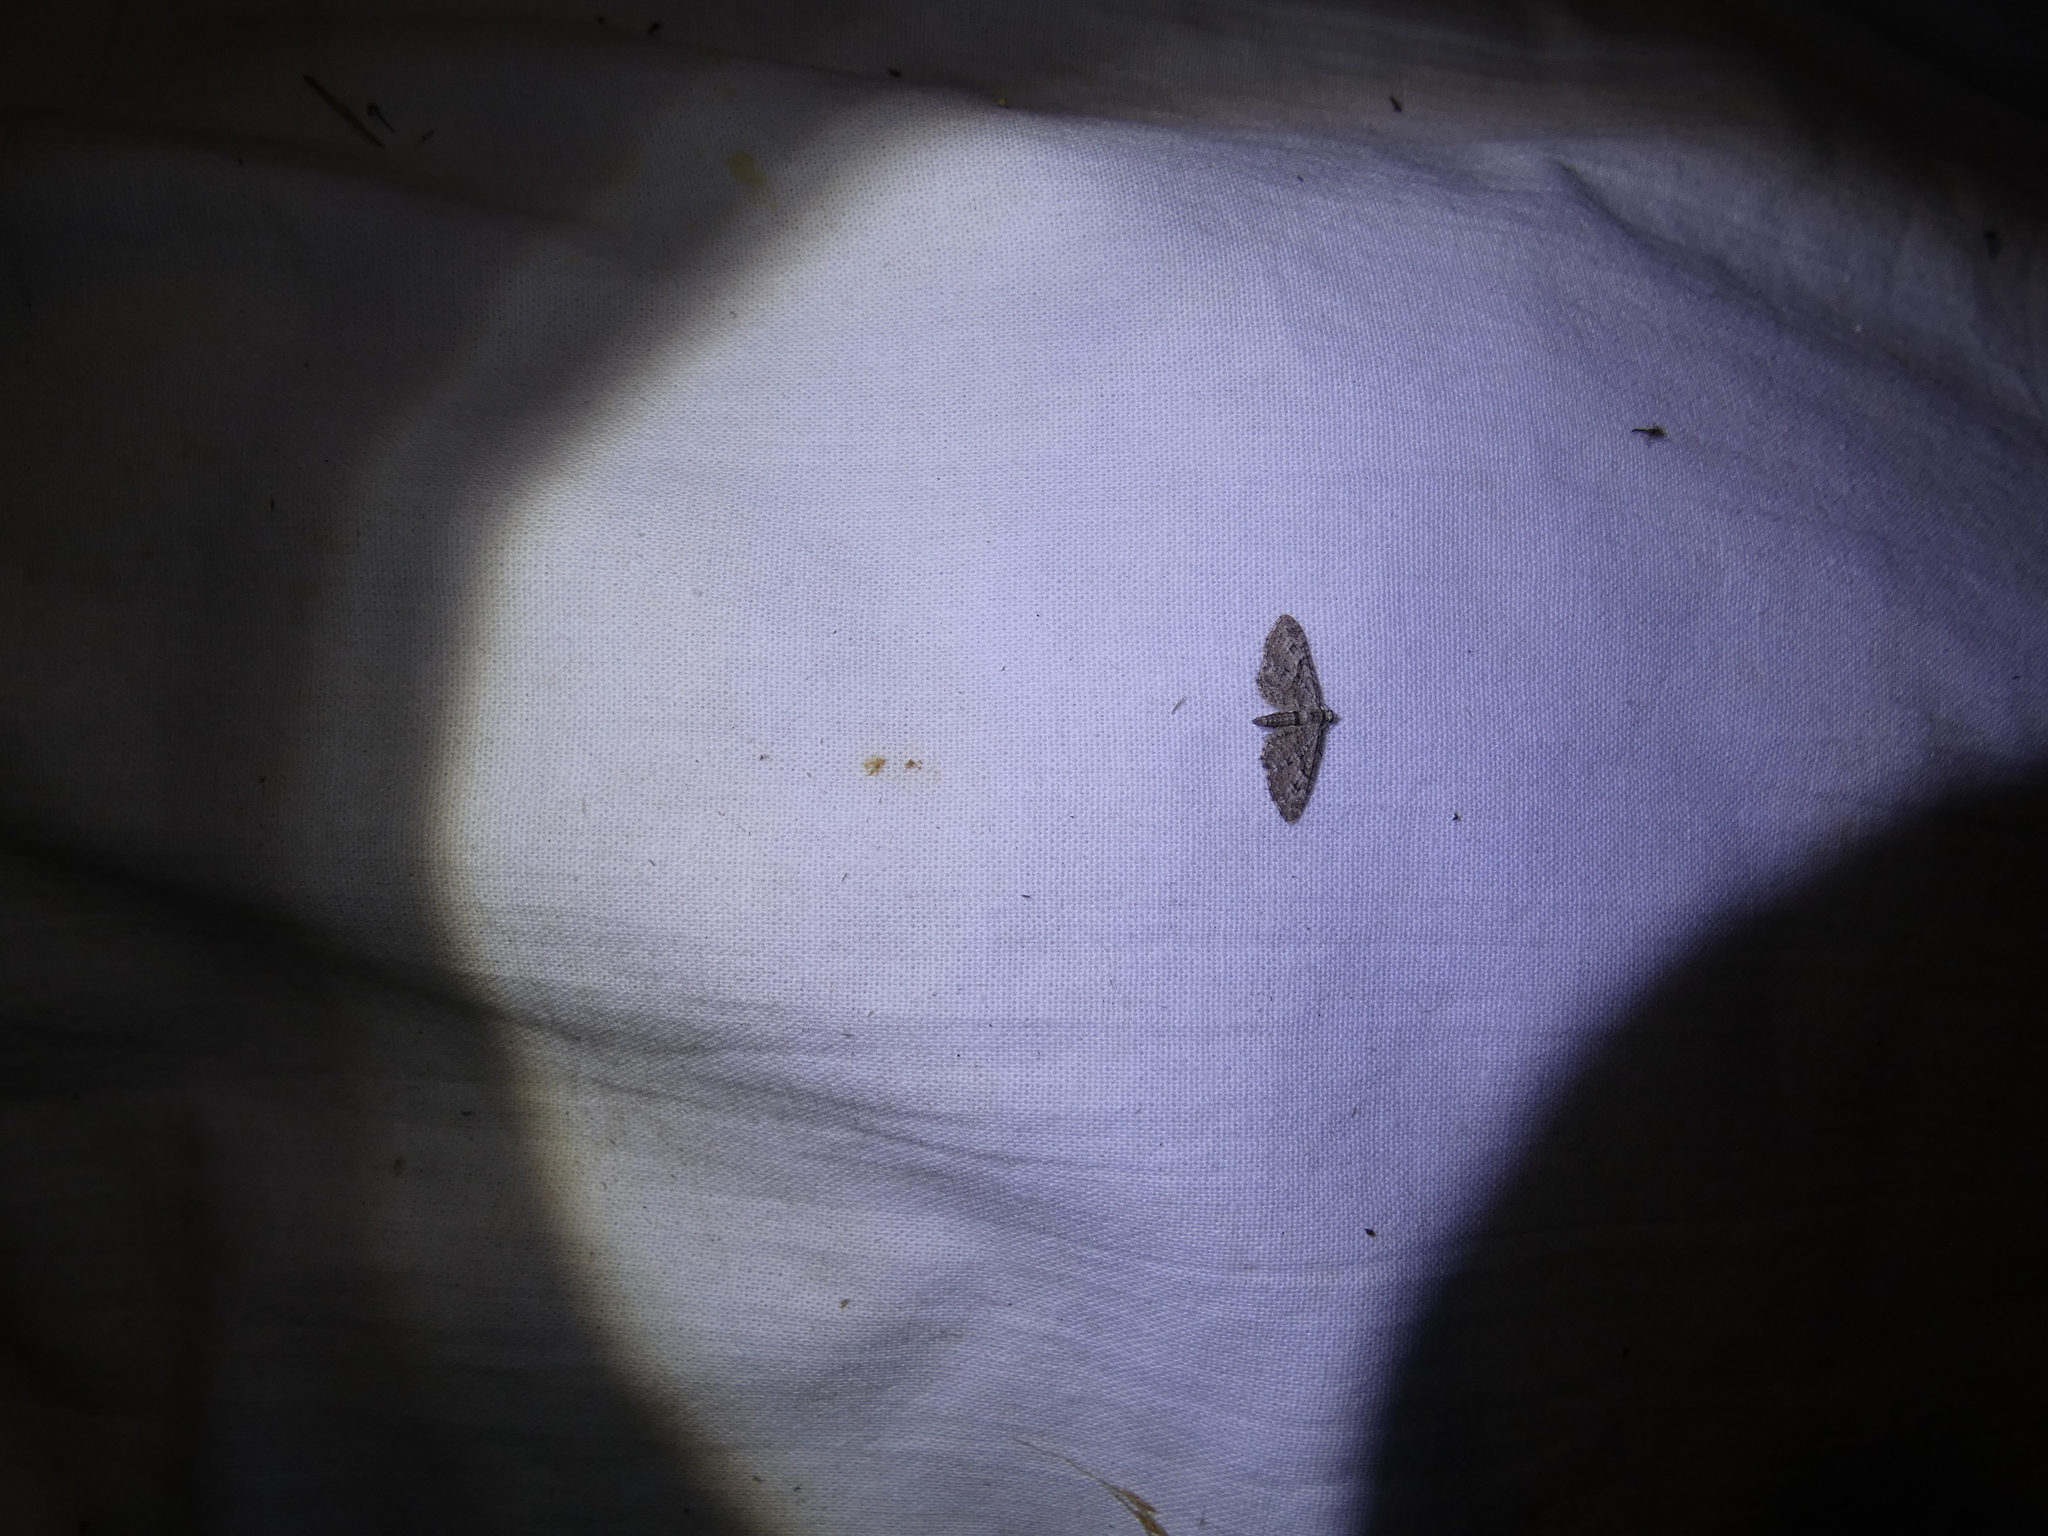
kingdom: Animalia
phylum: Arthropoda
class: Insecta
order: Lepidoptera
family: Geometridae
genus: Eupithecia
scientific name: Eupithecia pusillata
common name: Juniper pug
